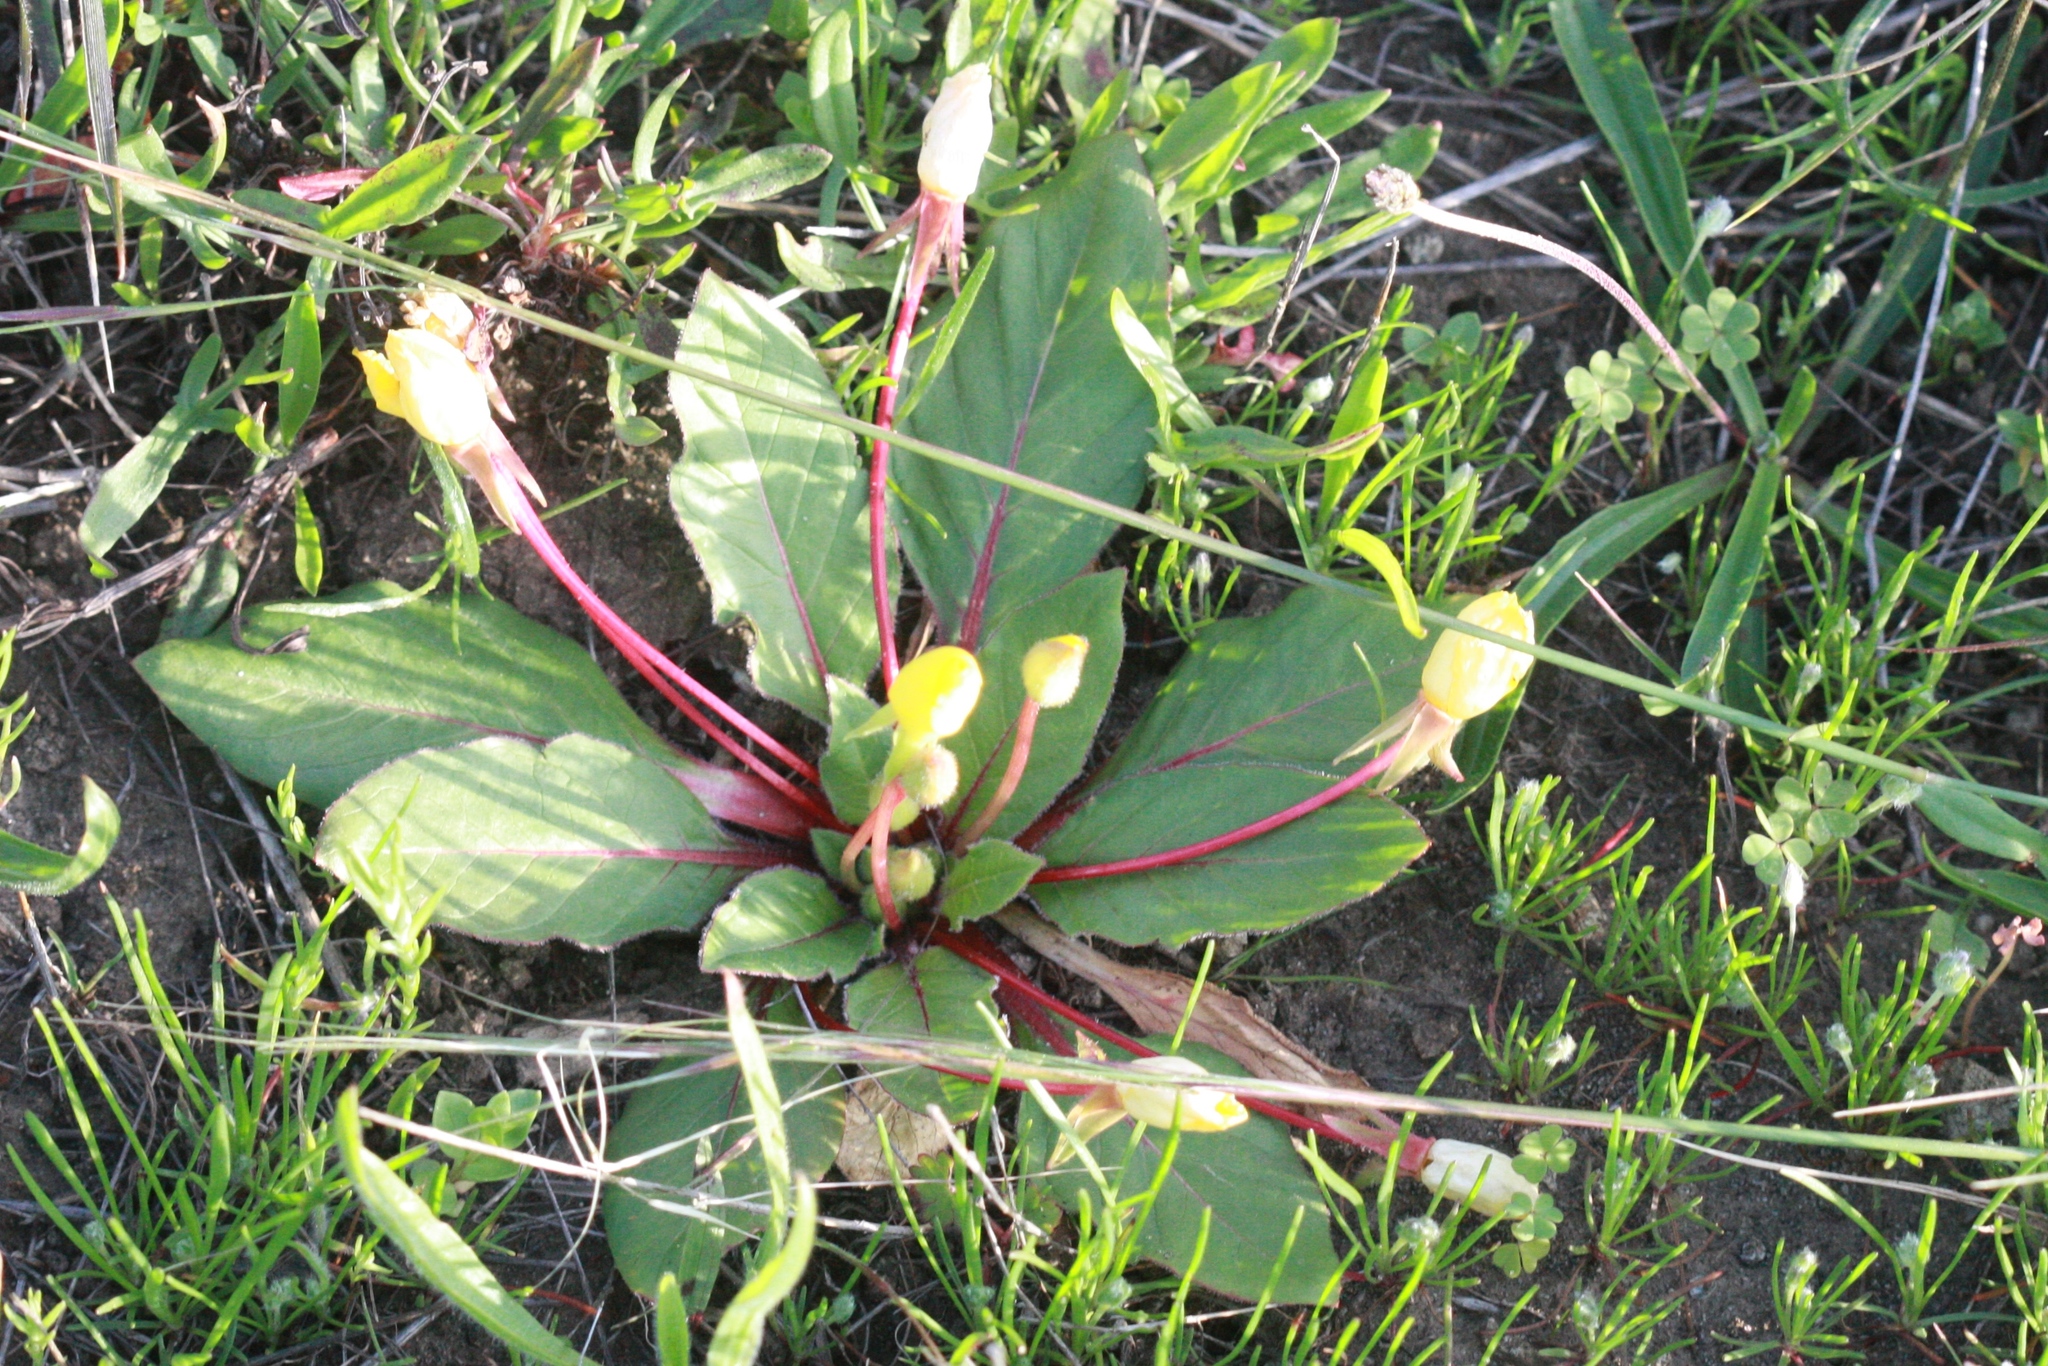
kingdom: Plantae
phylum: Tracheophyta
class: Magnoliopsida
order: Myrtales
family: Onagraceae
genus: Taraxia
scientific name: Taraxia ovata
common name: Goldeneggs
